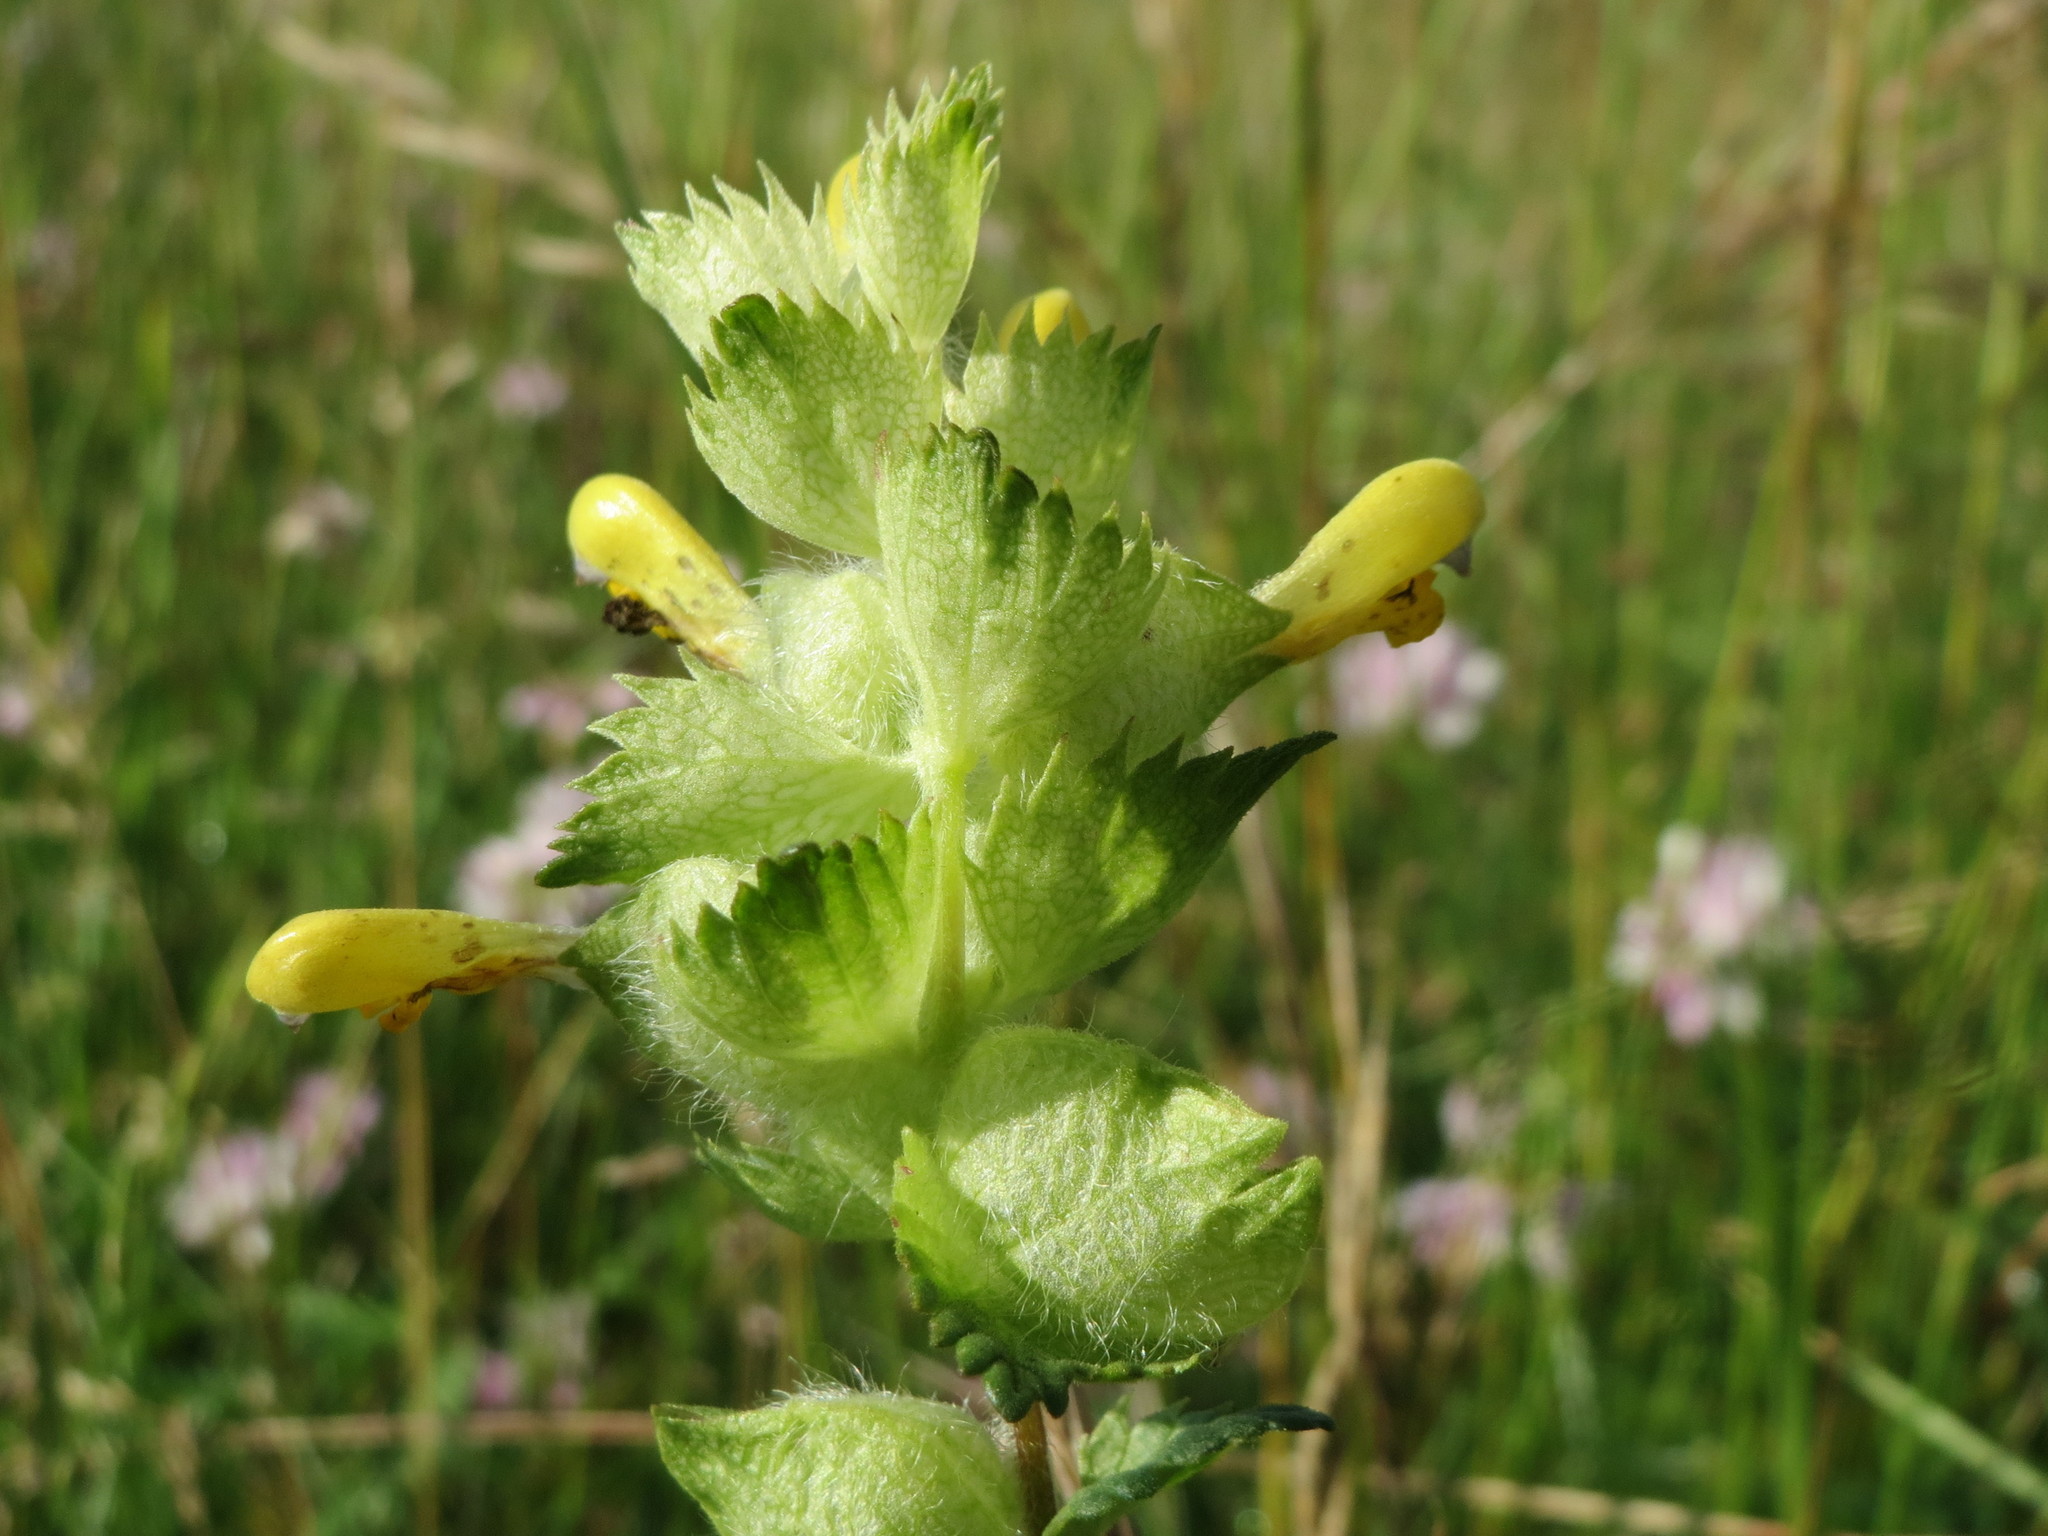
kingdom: Plantae
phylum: Tracheophyta
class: Magnoliopsida
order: Lamiales
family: Orobanchaceae
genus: Rhinanthus
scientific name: Rhinanthus alectorolophus
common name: Greater yellow-rattle
